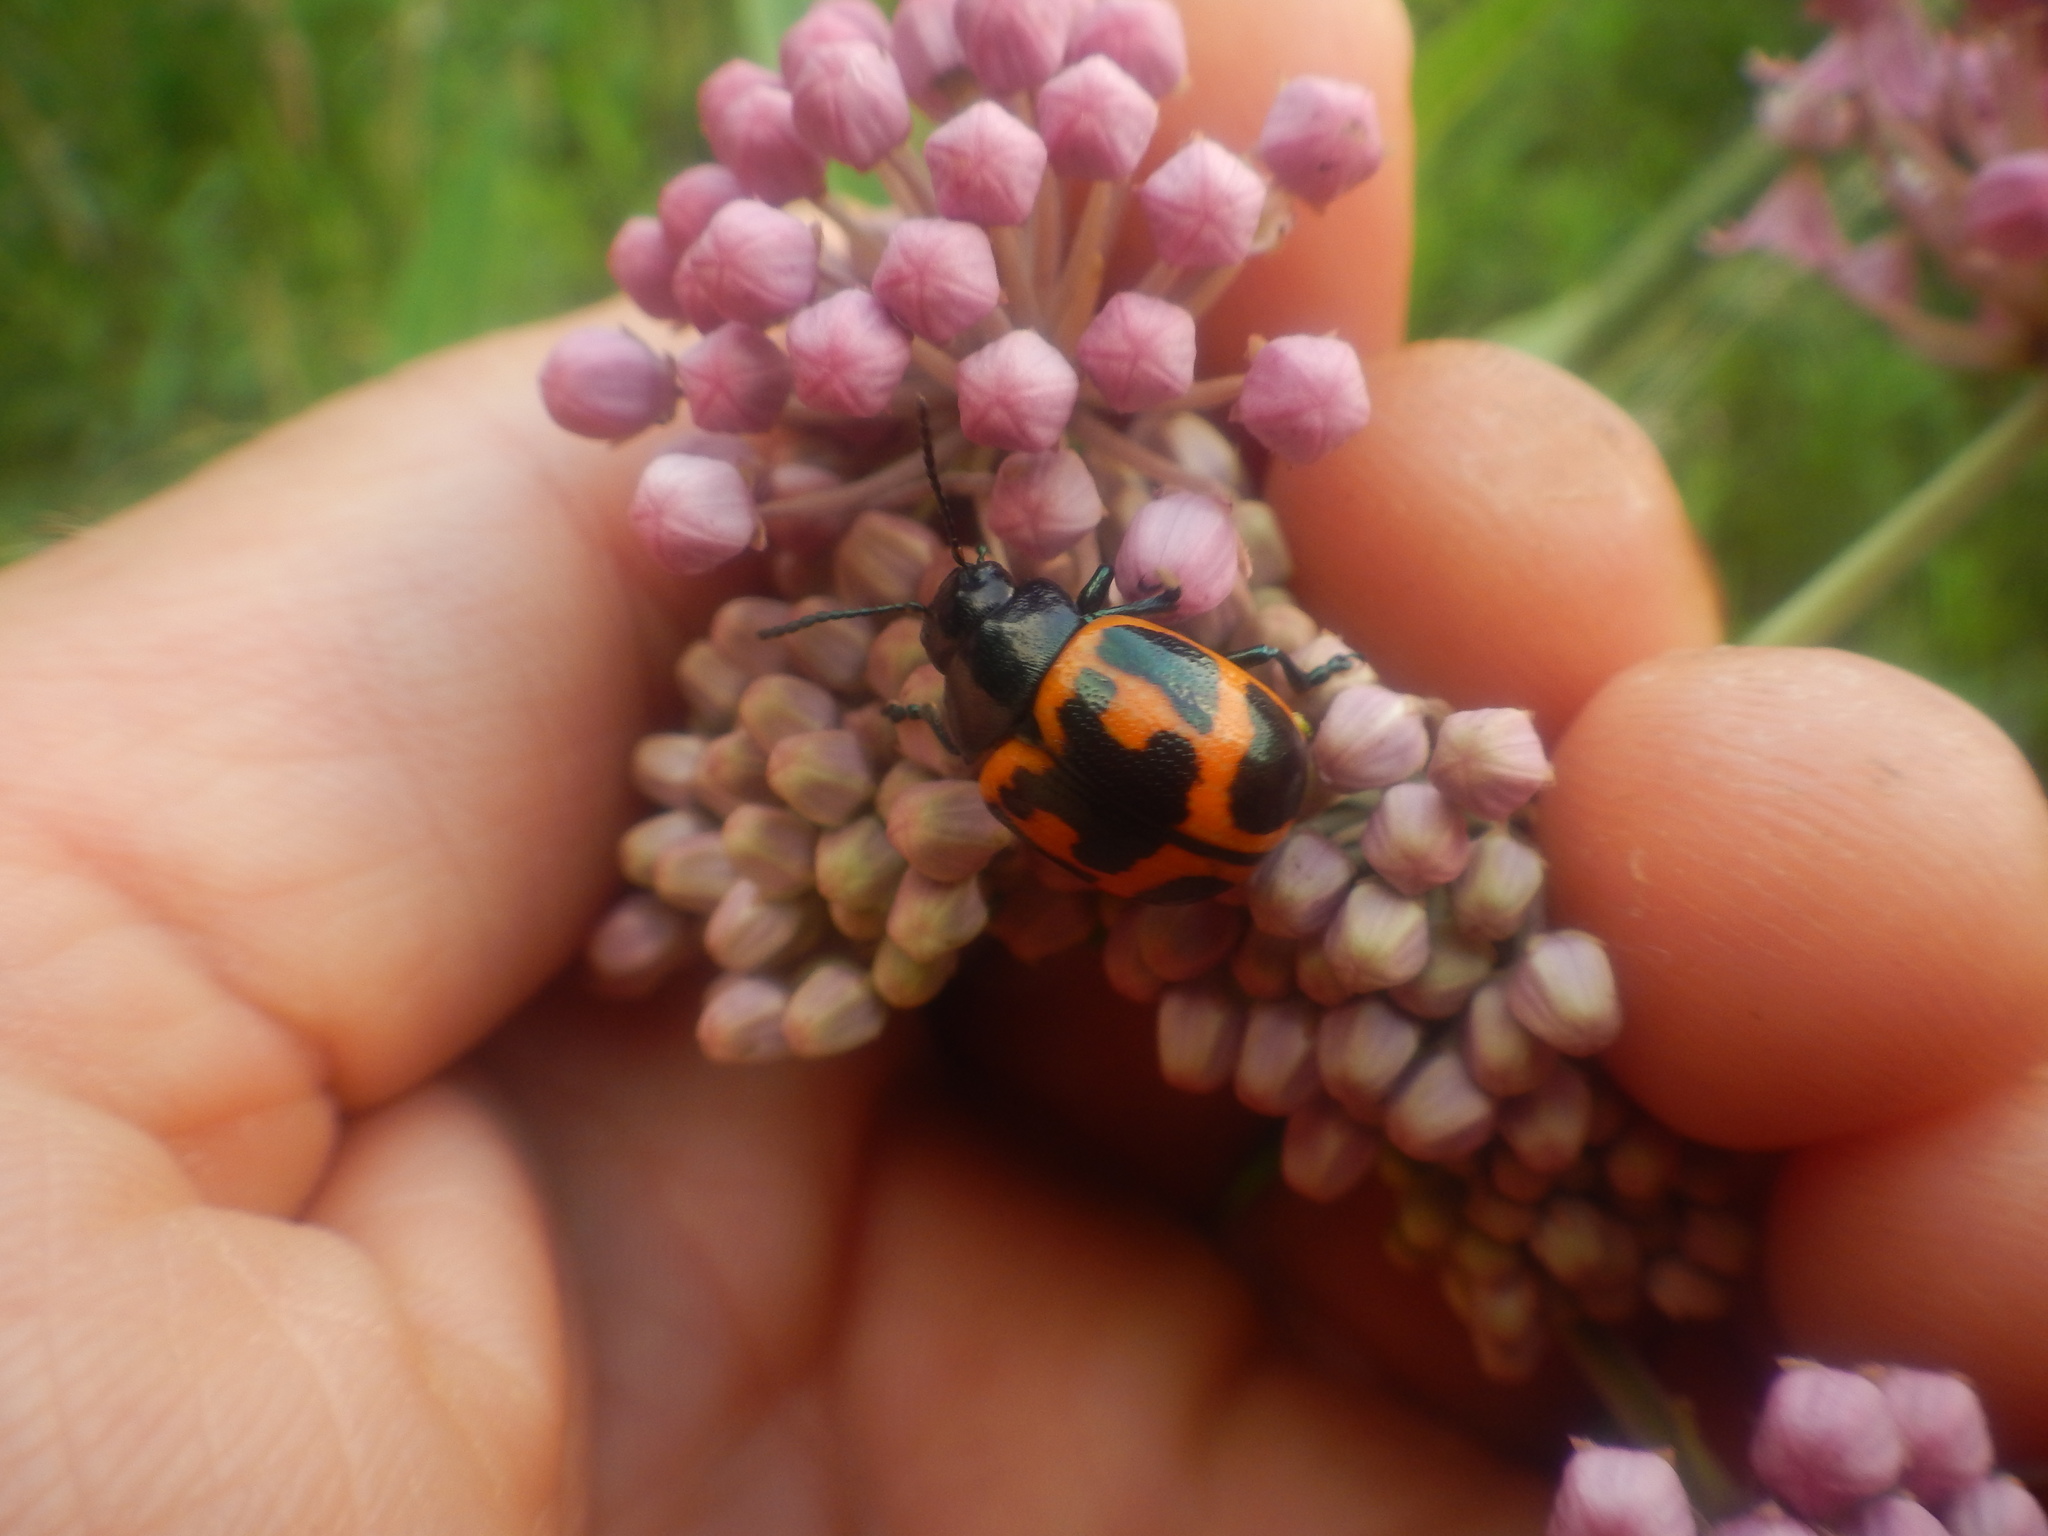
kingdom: Animalia
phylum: Arthropoda
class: Insecta
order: Coleoptera
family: Chrysomelidae
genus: Labidomera
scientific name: Labidomera clivicollis
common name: Swamp milkweed leaf beetle
